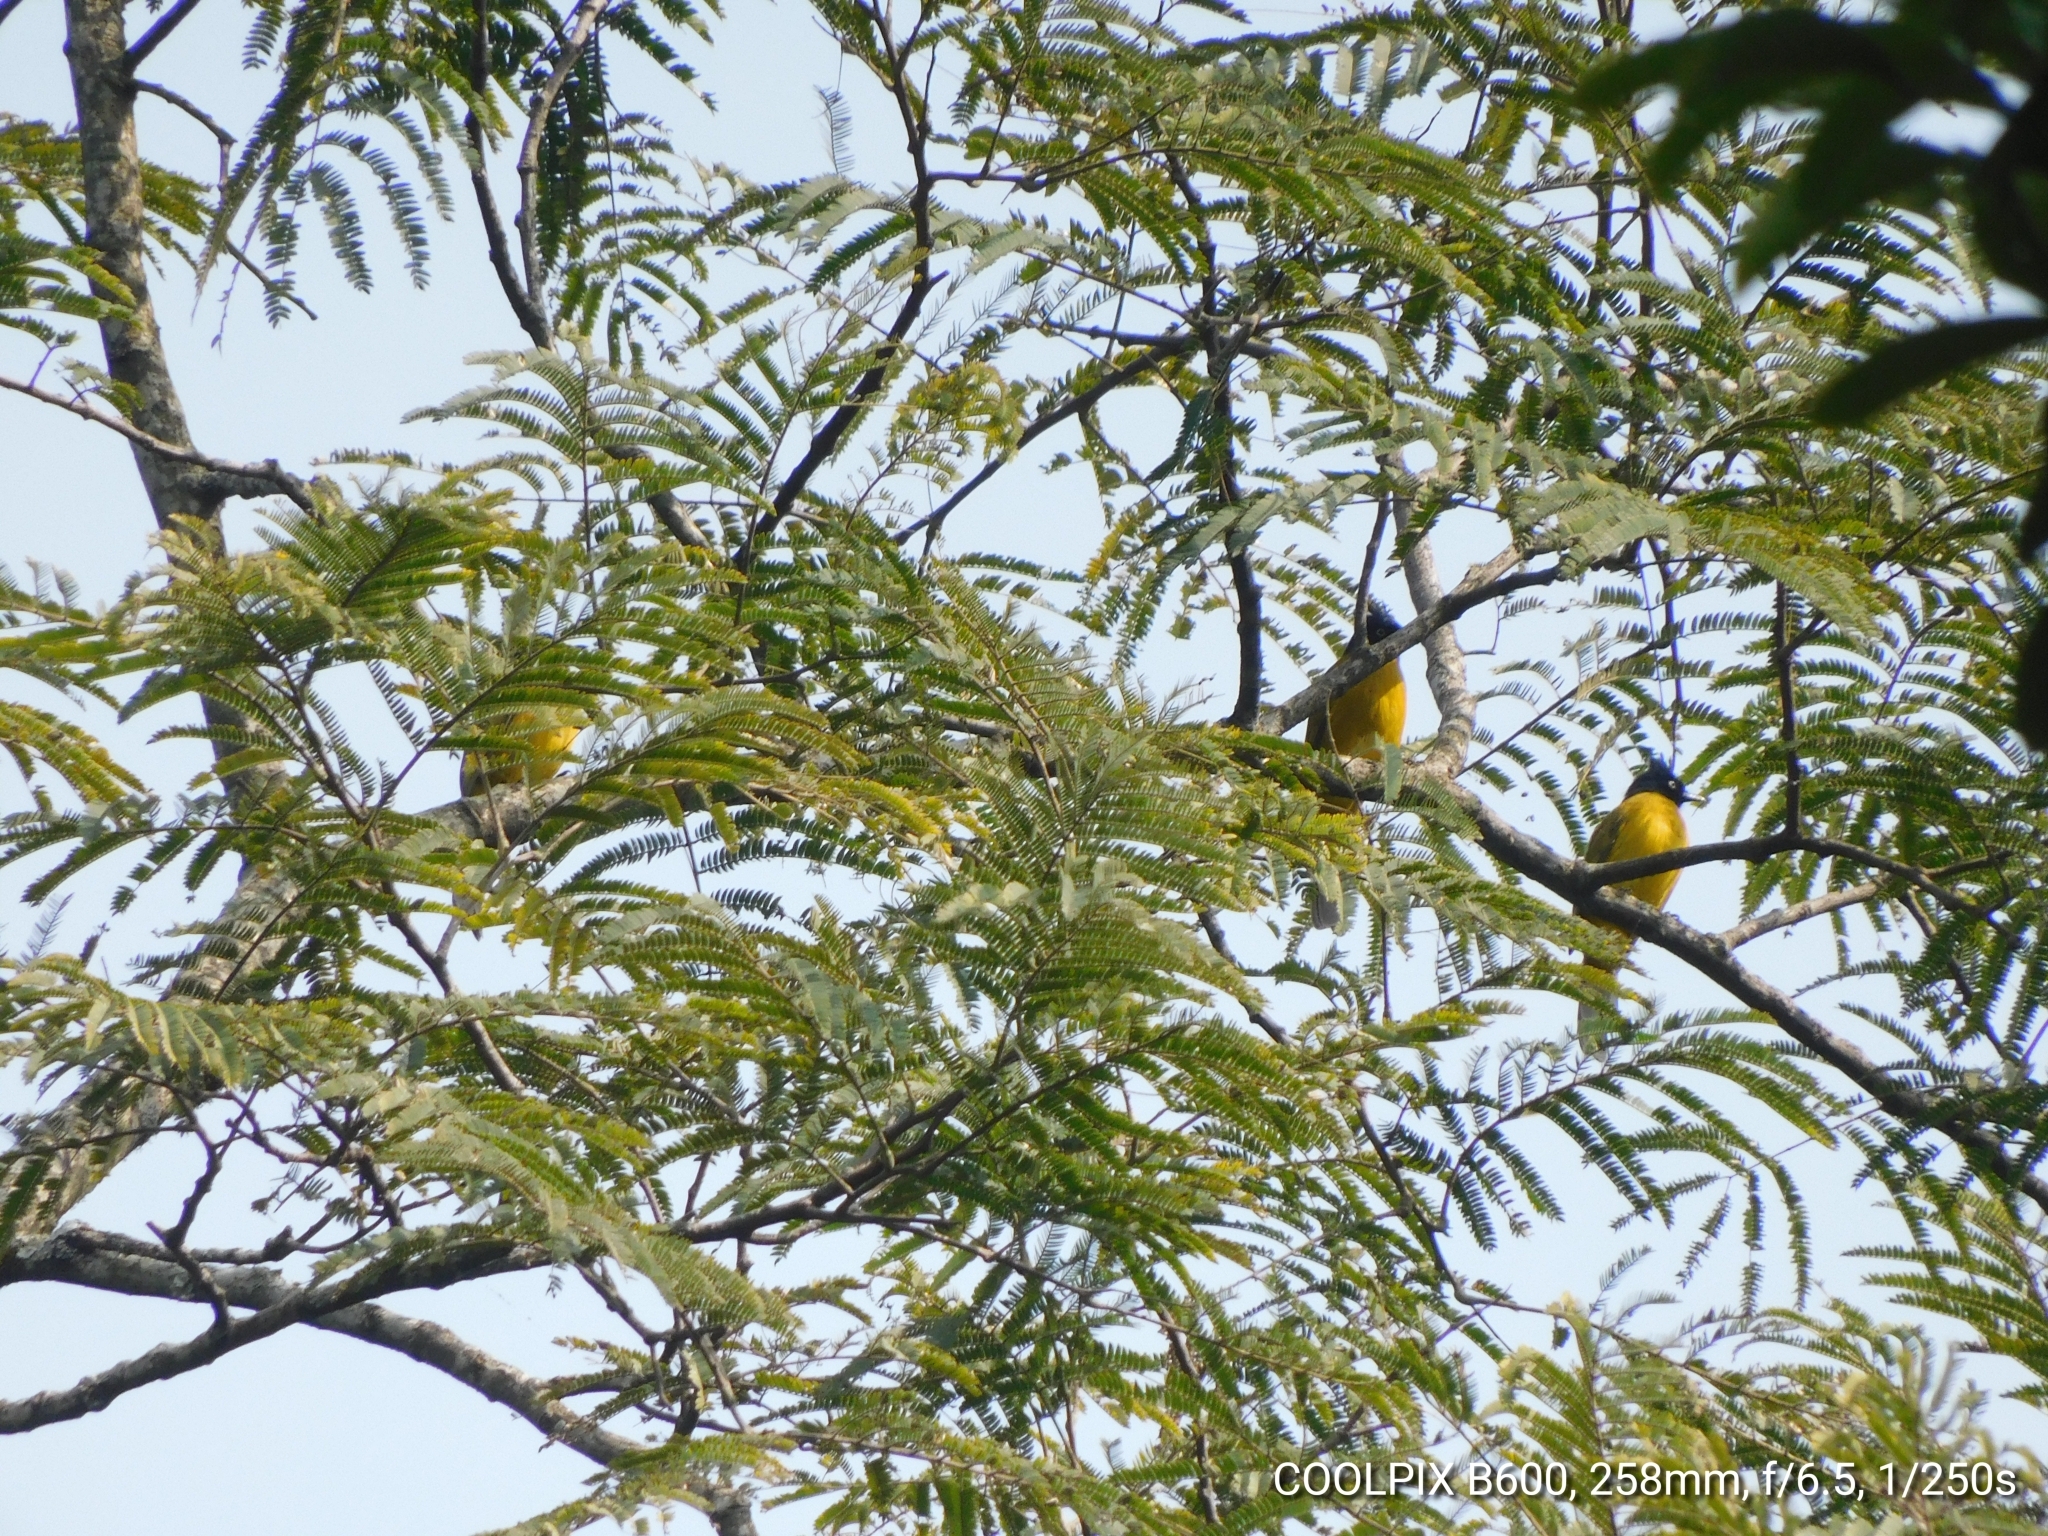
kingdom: Animalia
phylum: Chordata
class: Aves
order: Passeriformes
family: Pycnonotidae
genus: Pycnonotus
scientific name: Pycnonotus flaviventris
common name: Black-crested bulbul
